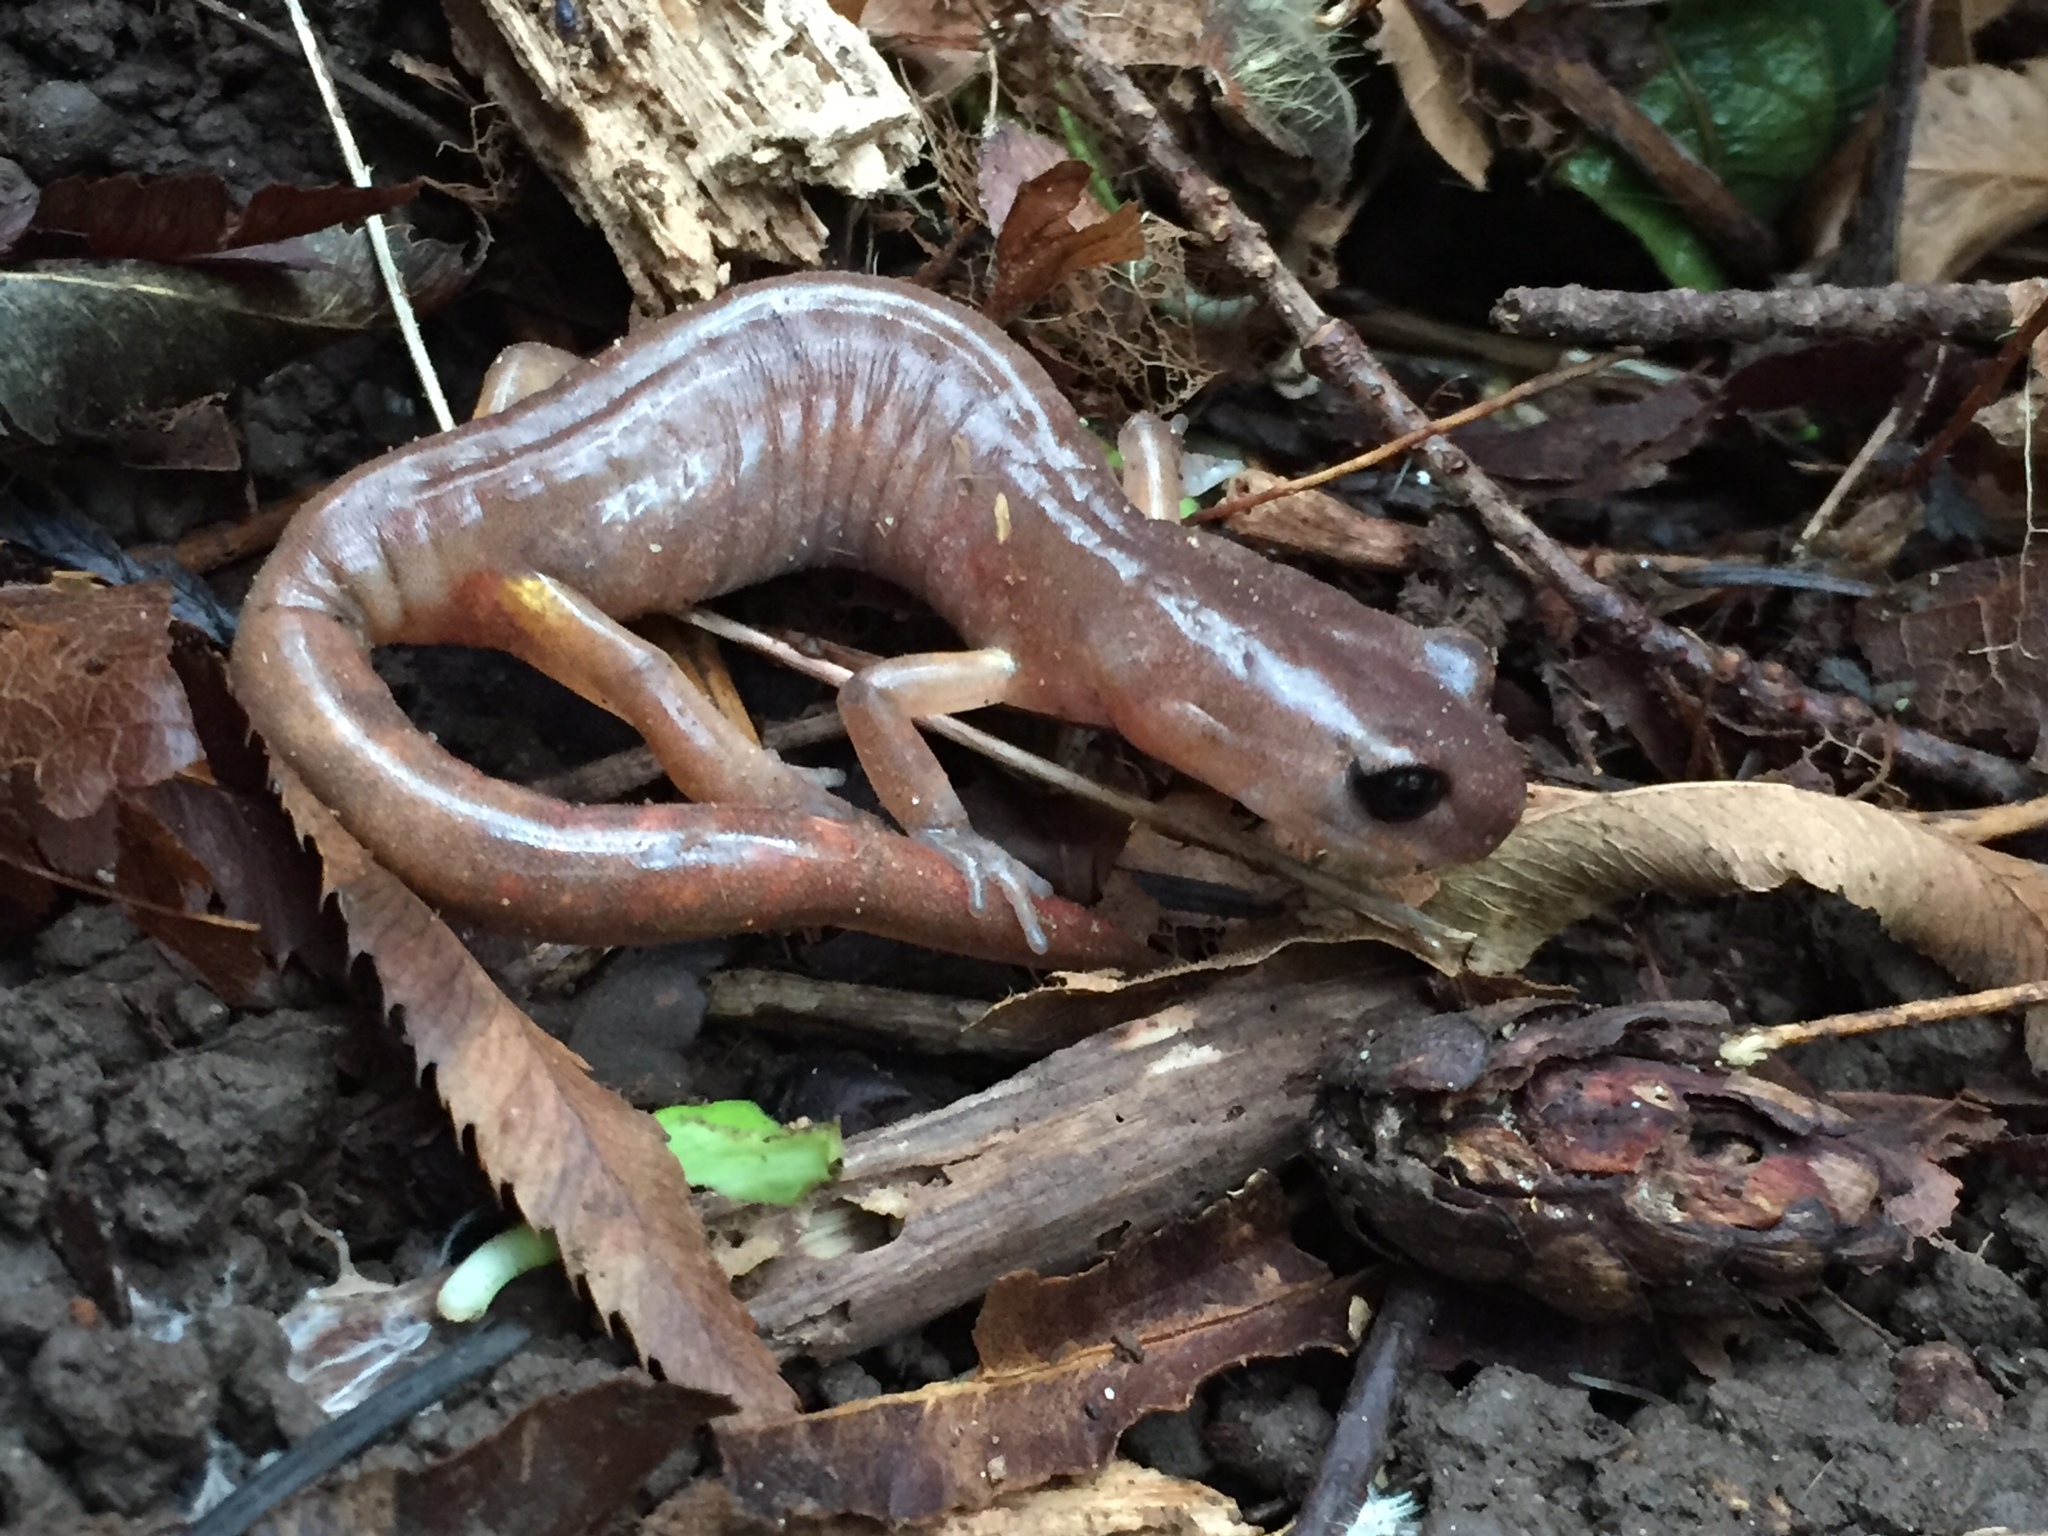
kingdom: Animalia
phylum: Chordata
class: Amphibia
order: Caudata
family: Plethodontidae
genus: Ensatina
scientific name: Ensatina eschscholtzii
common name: Ensatina
